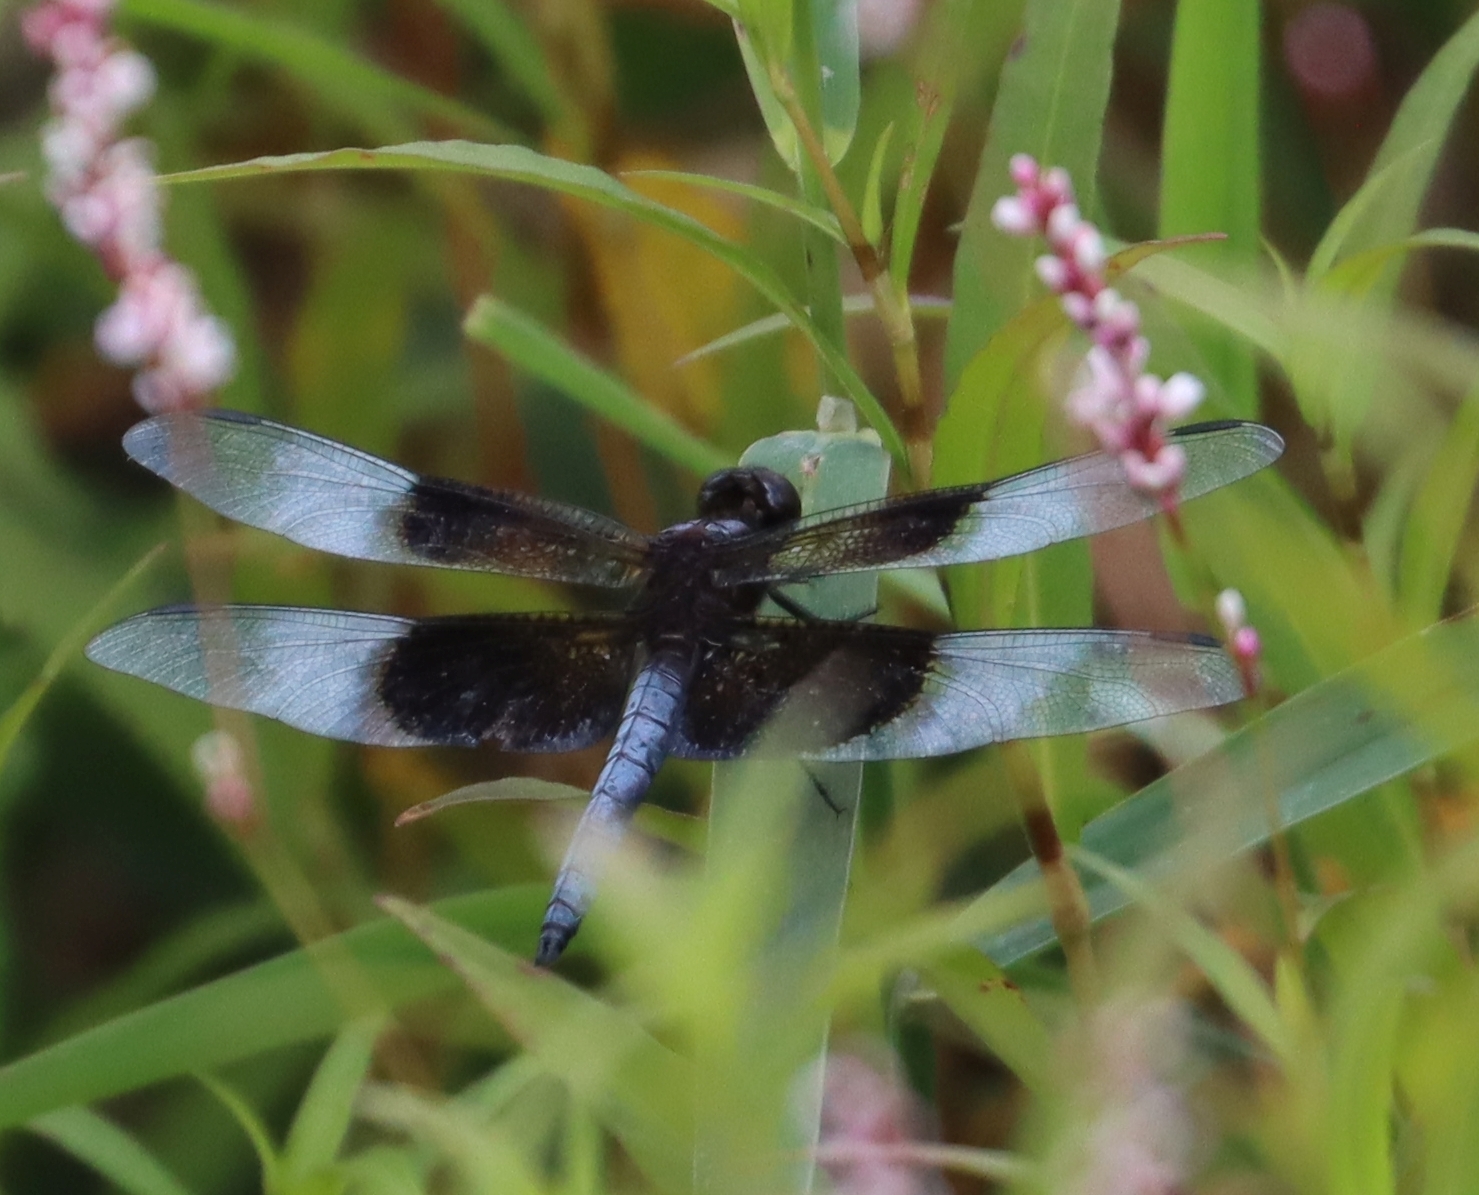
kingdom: Animalia
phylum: Arthropoda
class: Insecta
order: Odonata
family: Libellulidae
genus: Libellula
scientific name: Libellula luctuosa
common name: Widow skimmer
